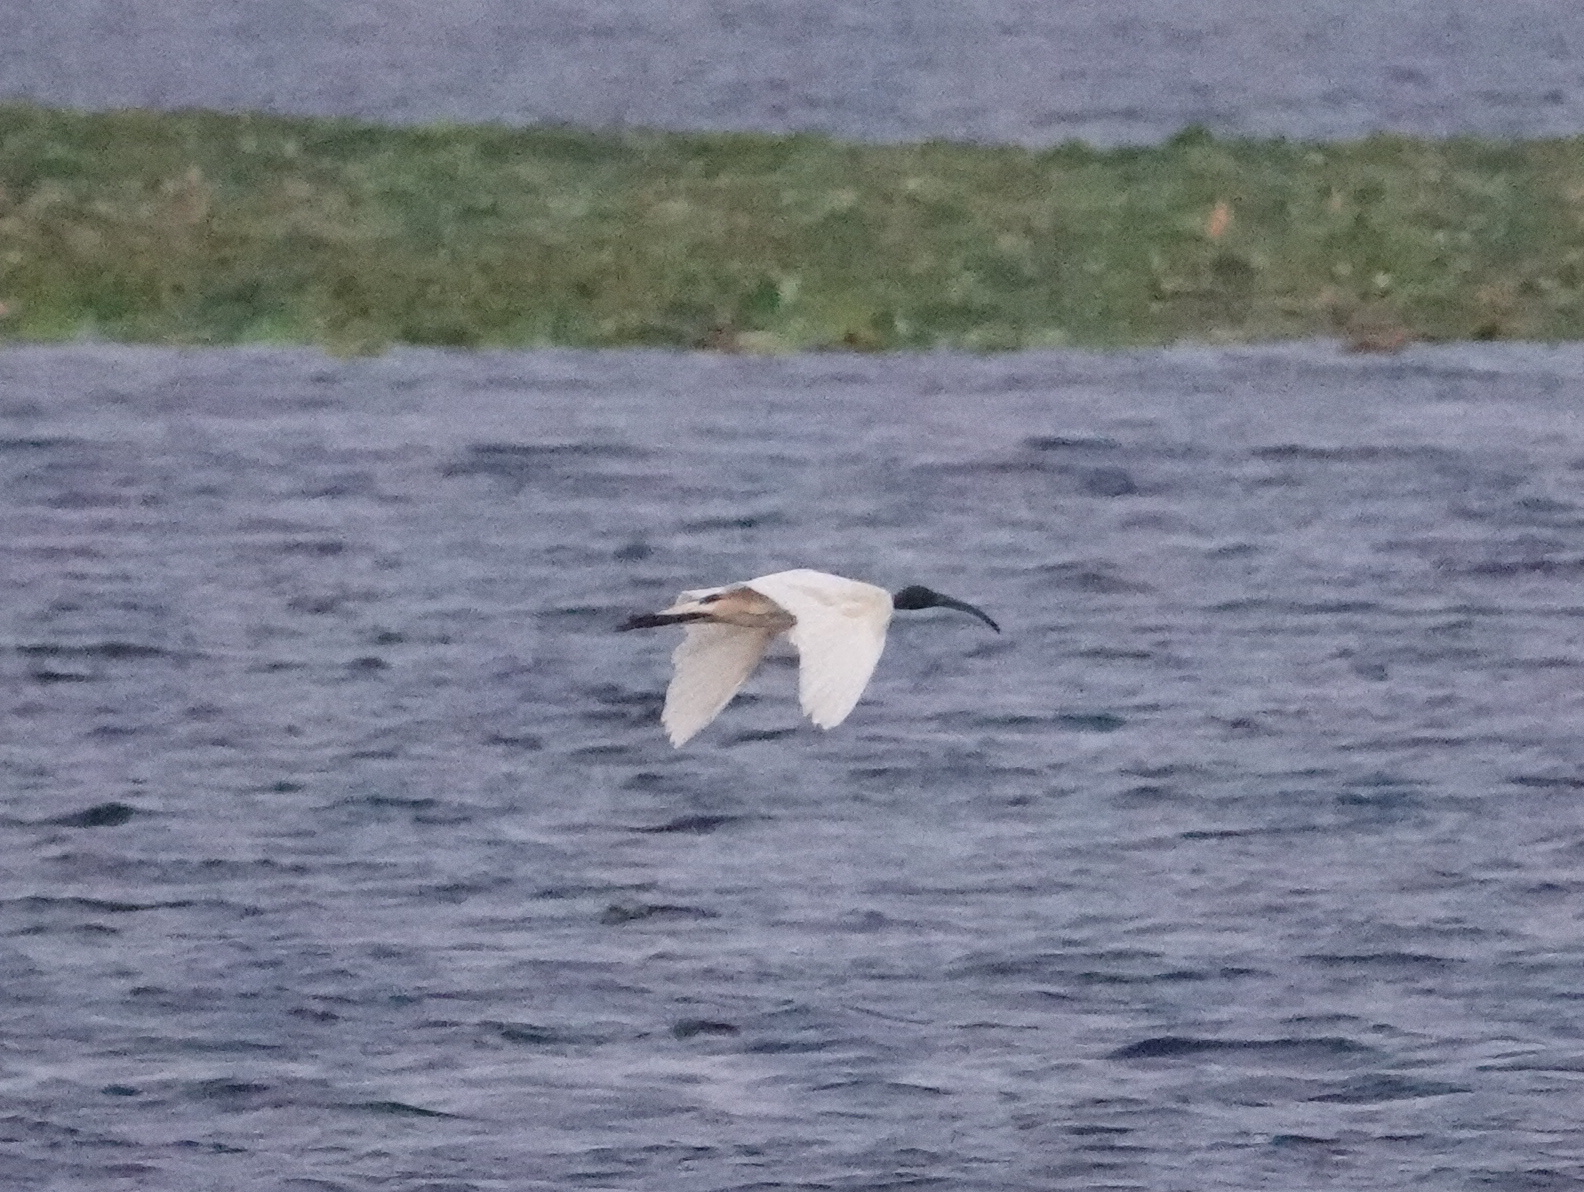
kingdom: Animalia
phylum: Chordata
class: Aves
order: Pelecaniformes
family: Threskiornithidae
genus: Threskiornis
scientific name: Threskiornis melanocephalus
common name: Black-headed ibis
